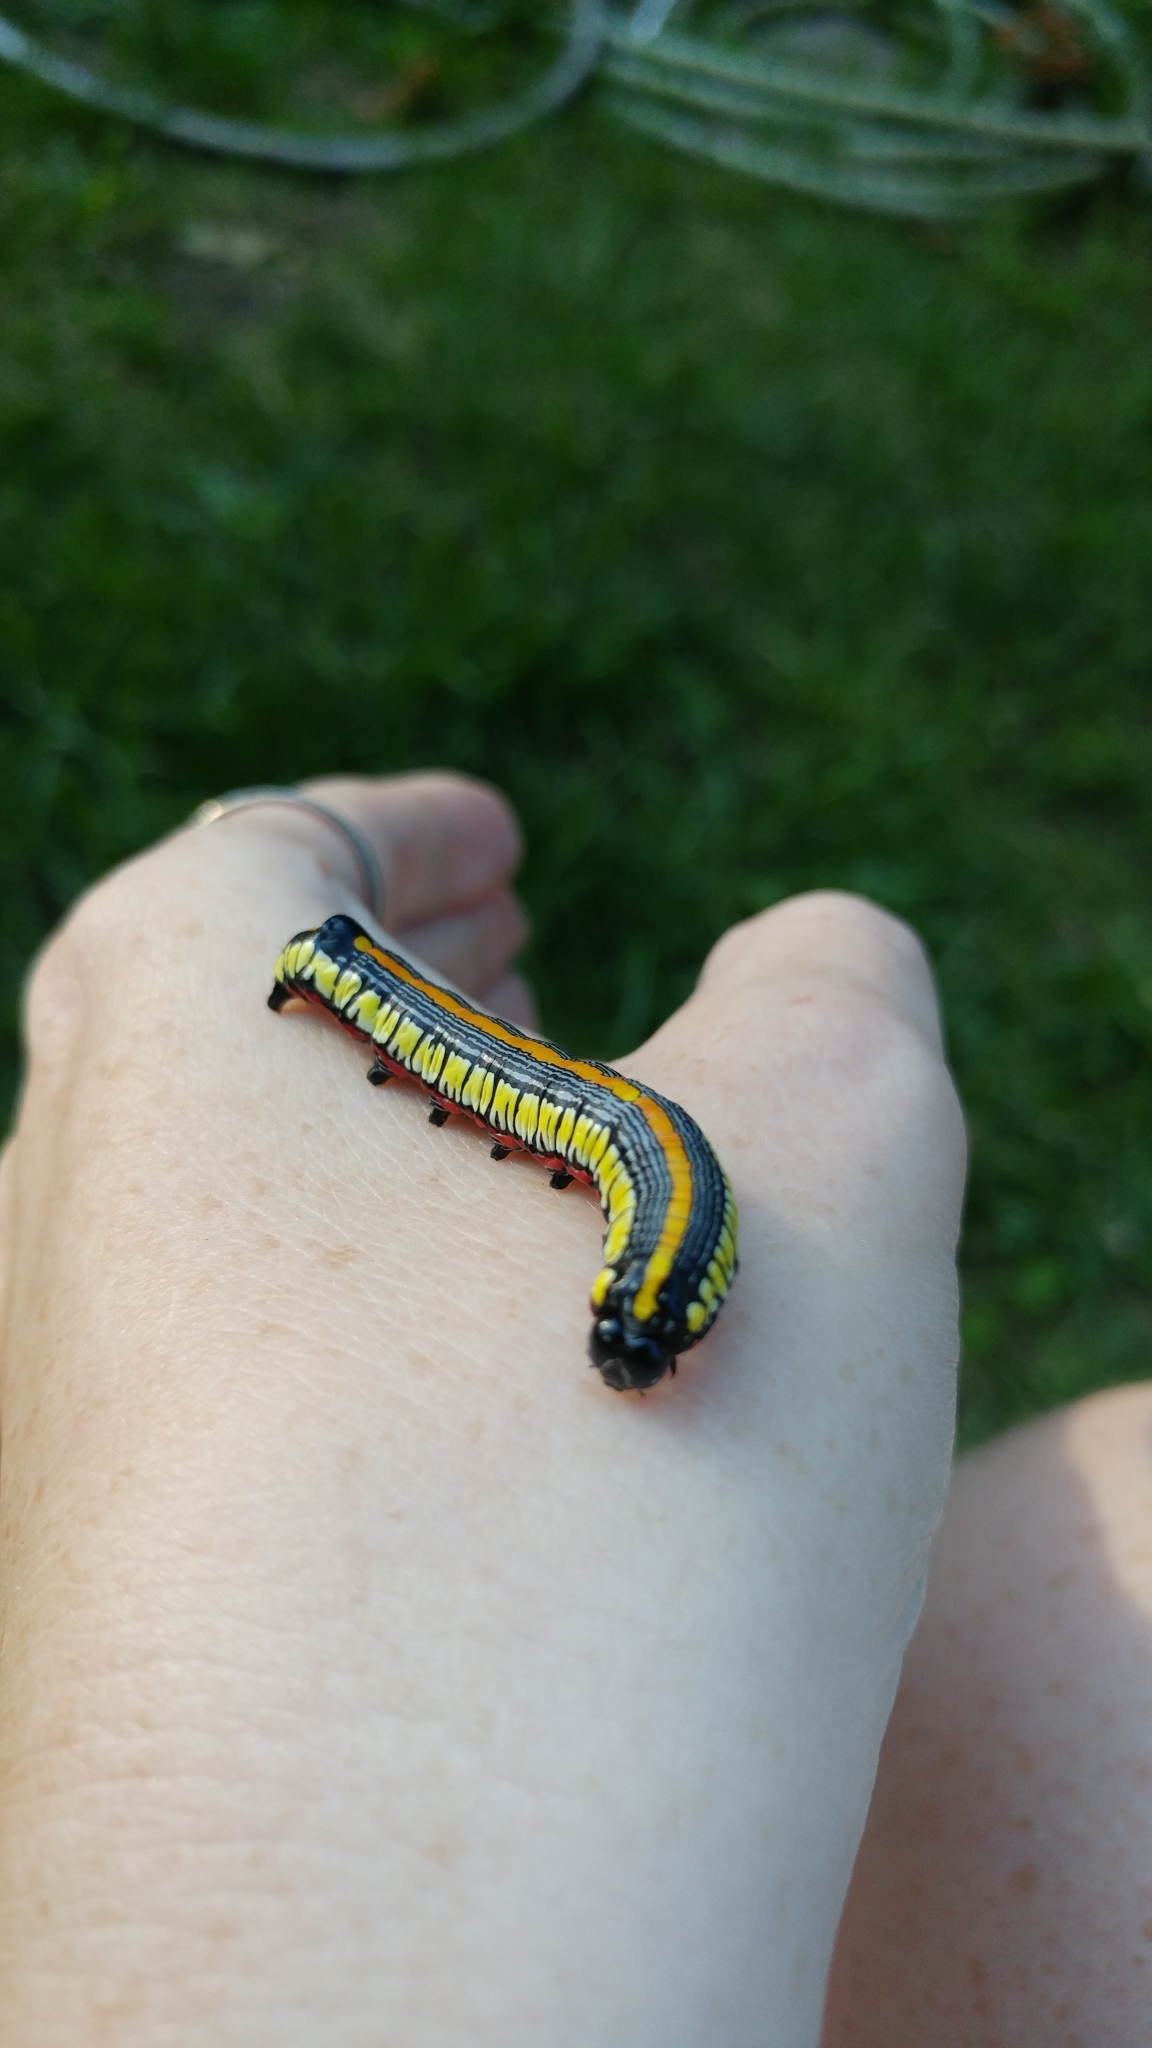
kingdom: Animalia
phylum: Arthropoda
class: Insecta
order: Lepidoptera
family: Noctuidae
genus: Cucullia
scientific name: Cucullia convexipennis
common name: Brown-hooded owlet
